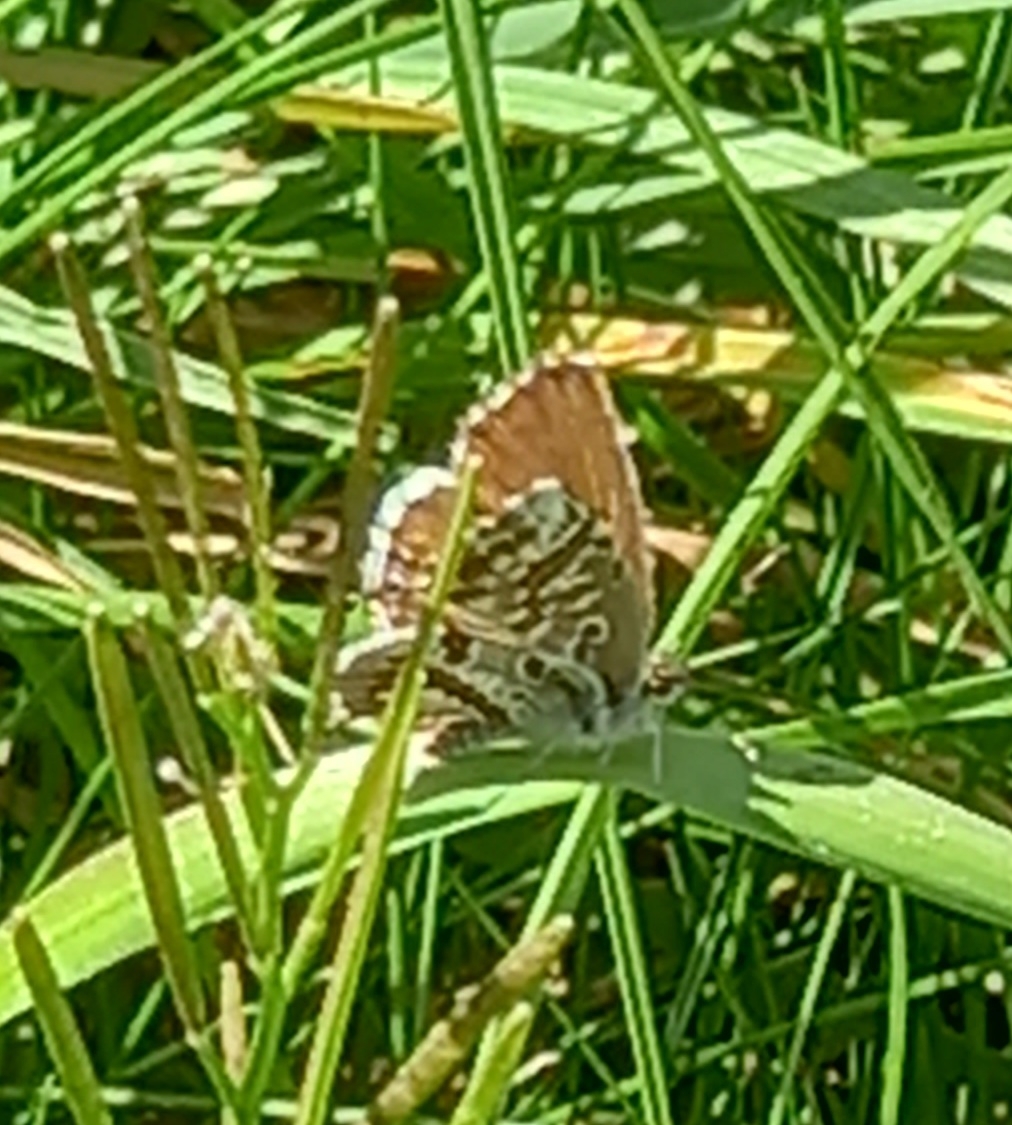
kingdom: Animalia
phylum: Arthropoda
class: Insecta
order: Lepidoptera
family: Lycaenidae
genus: Cacyreus
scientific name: Cacyreus marshalli
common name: Geranium bronze
